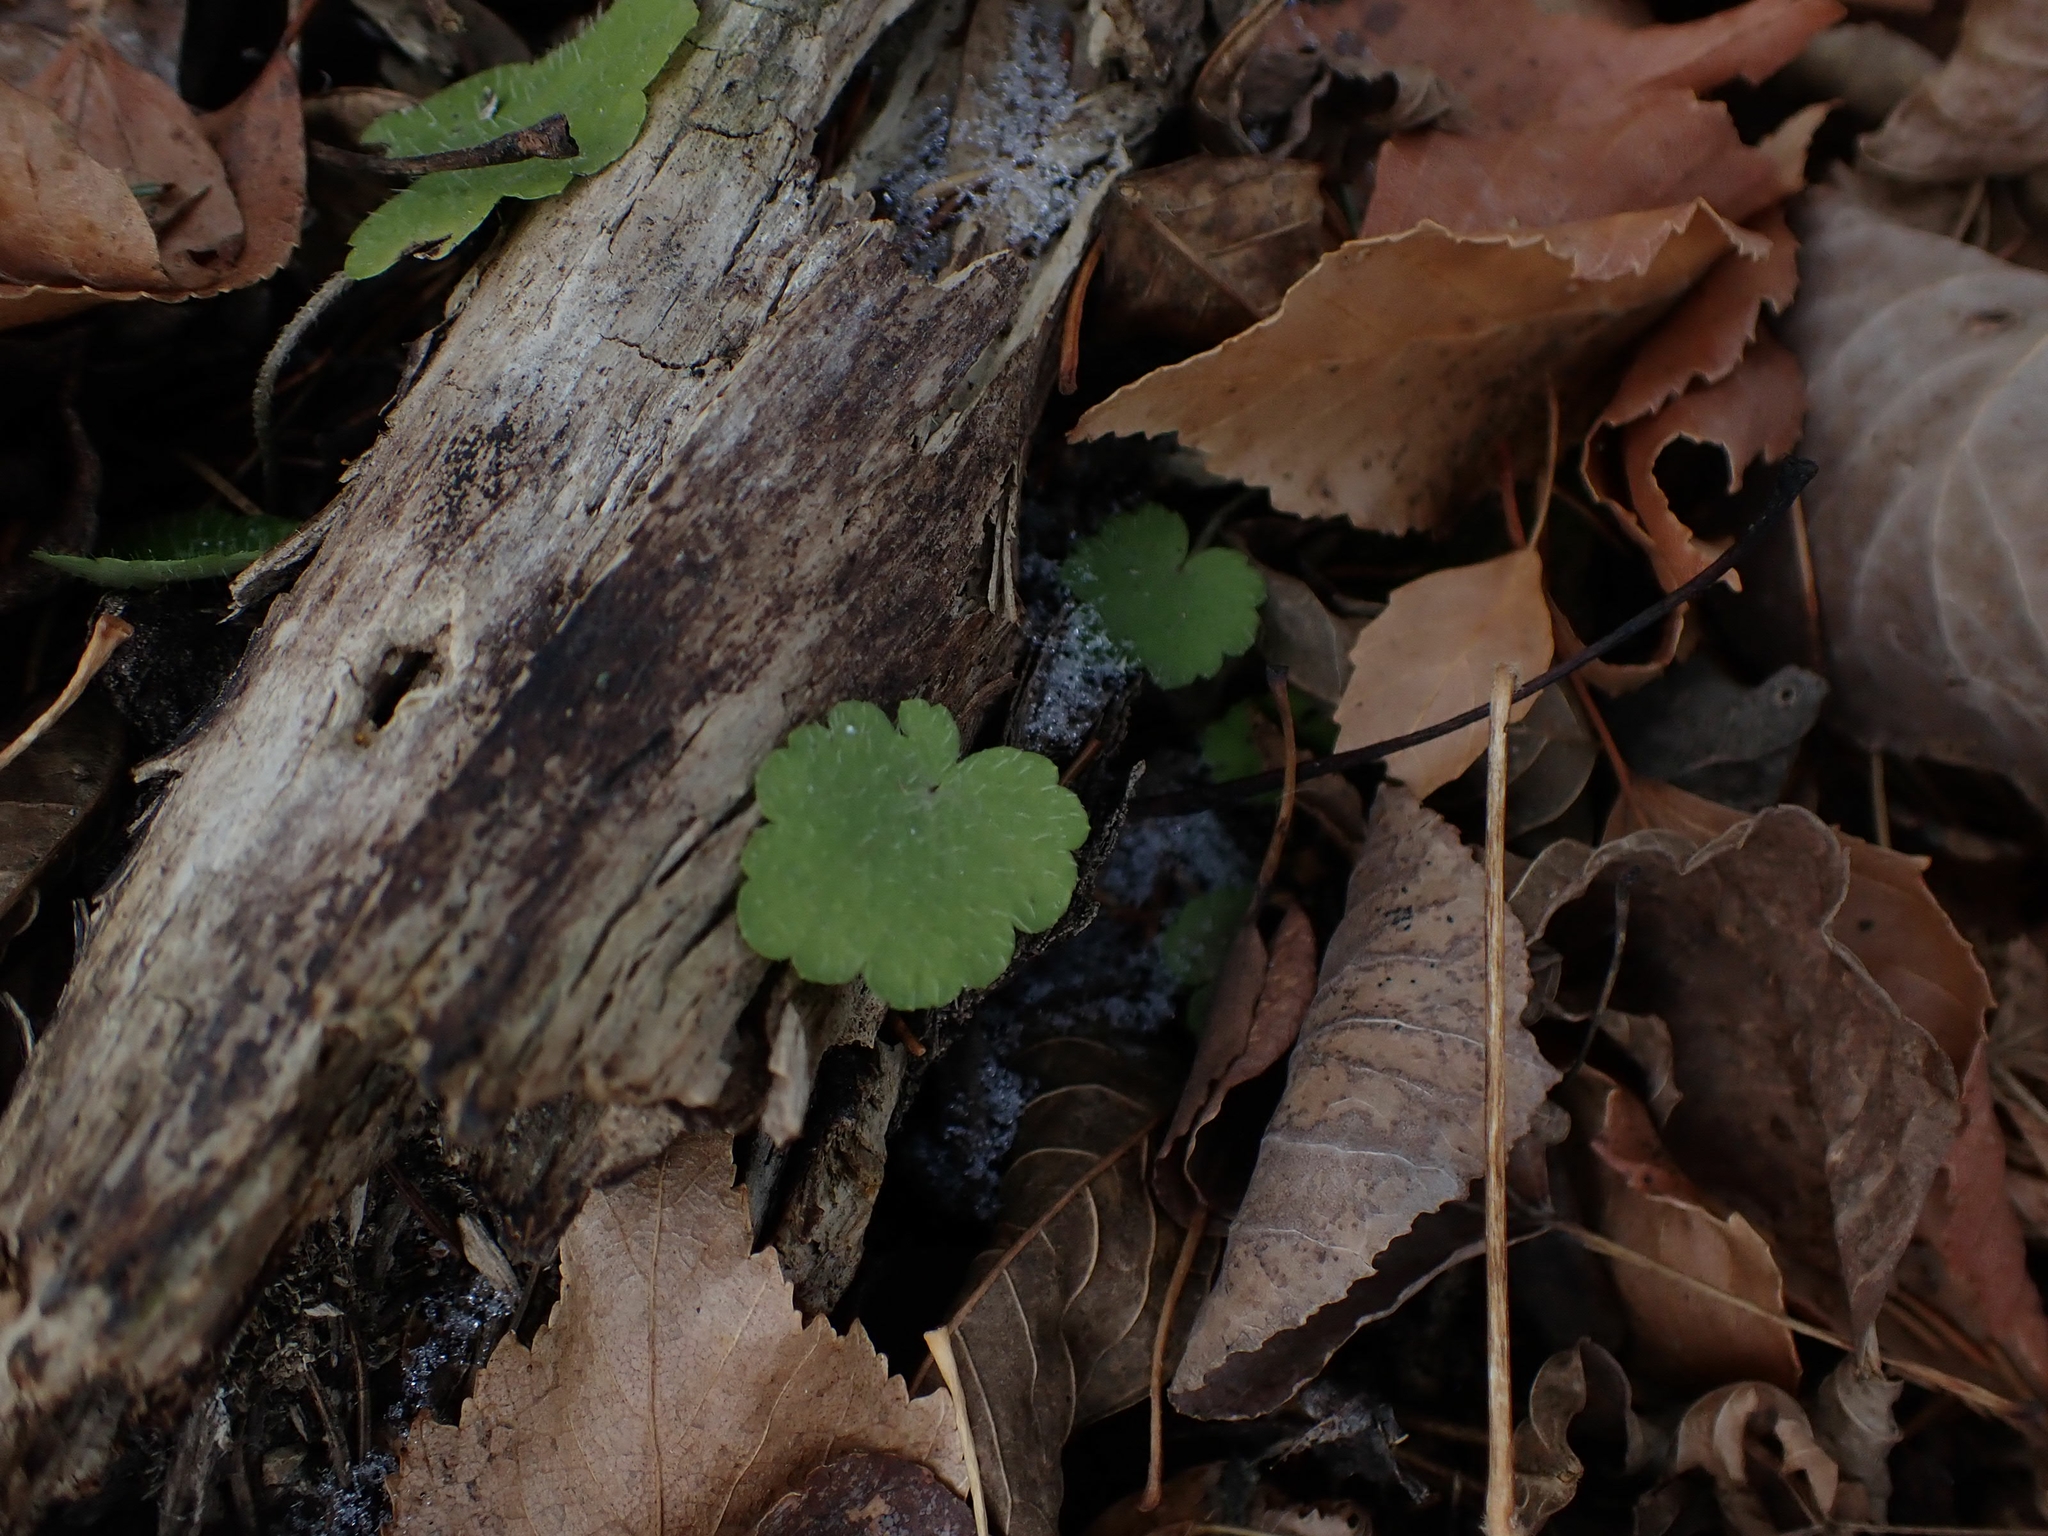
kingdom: Plantae
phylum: Tracheophyta
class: Magnoliopsida
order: Saxifragales
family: Saxifragaceae
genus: Mitella
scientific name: Mitella nuda
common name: Bare-stemmed bishop's-cap
